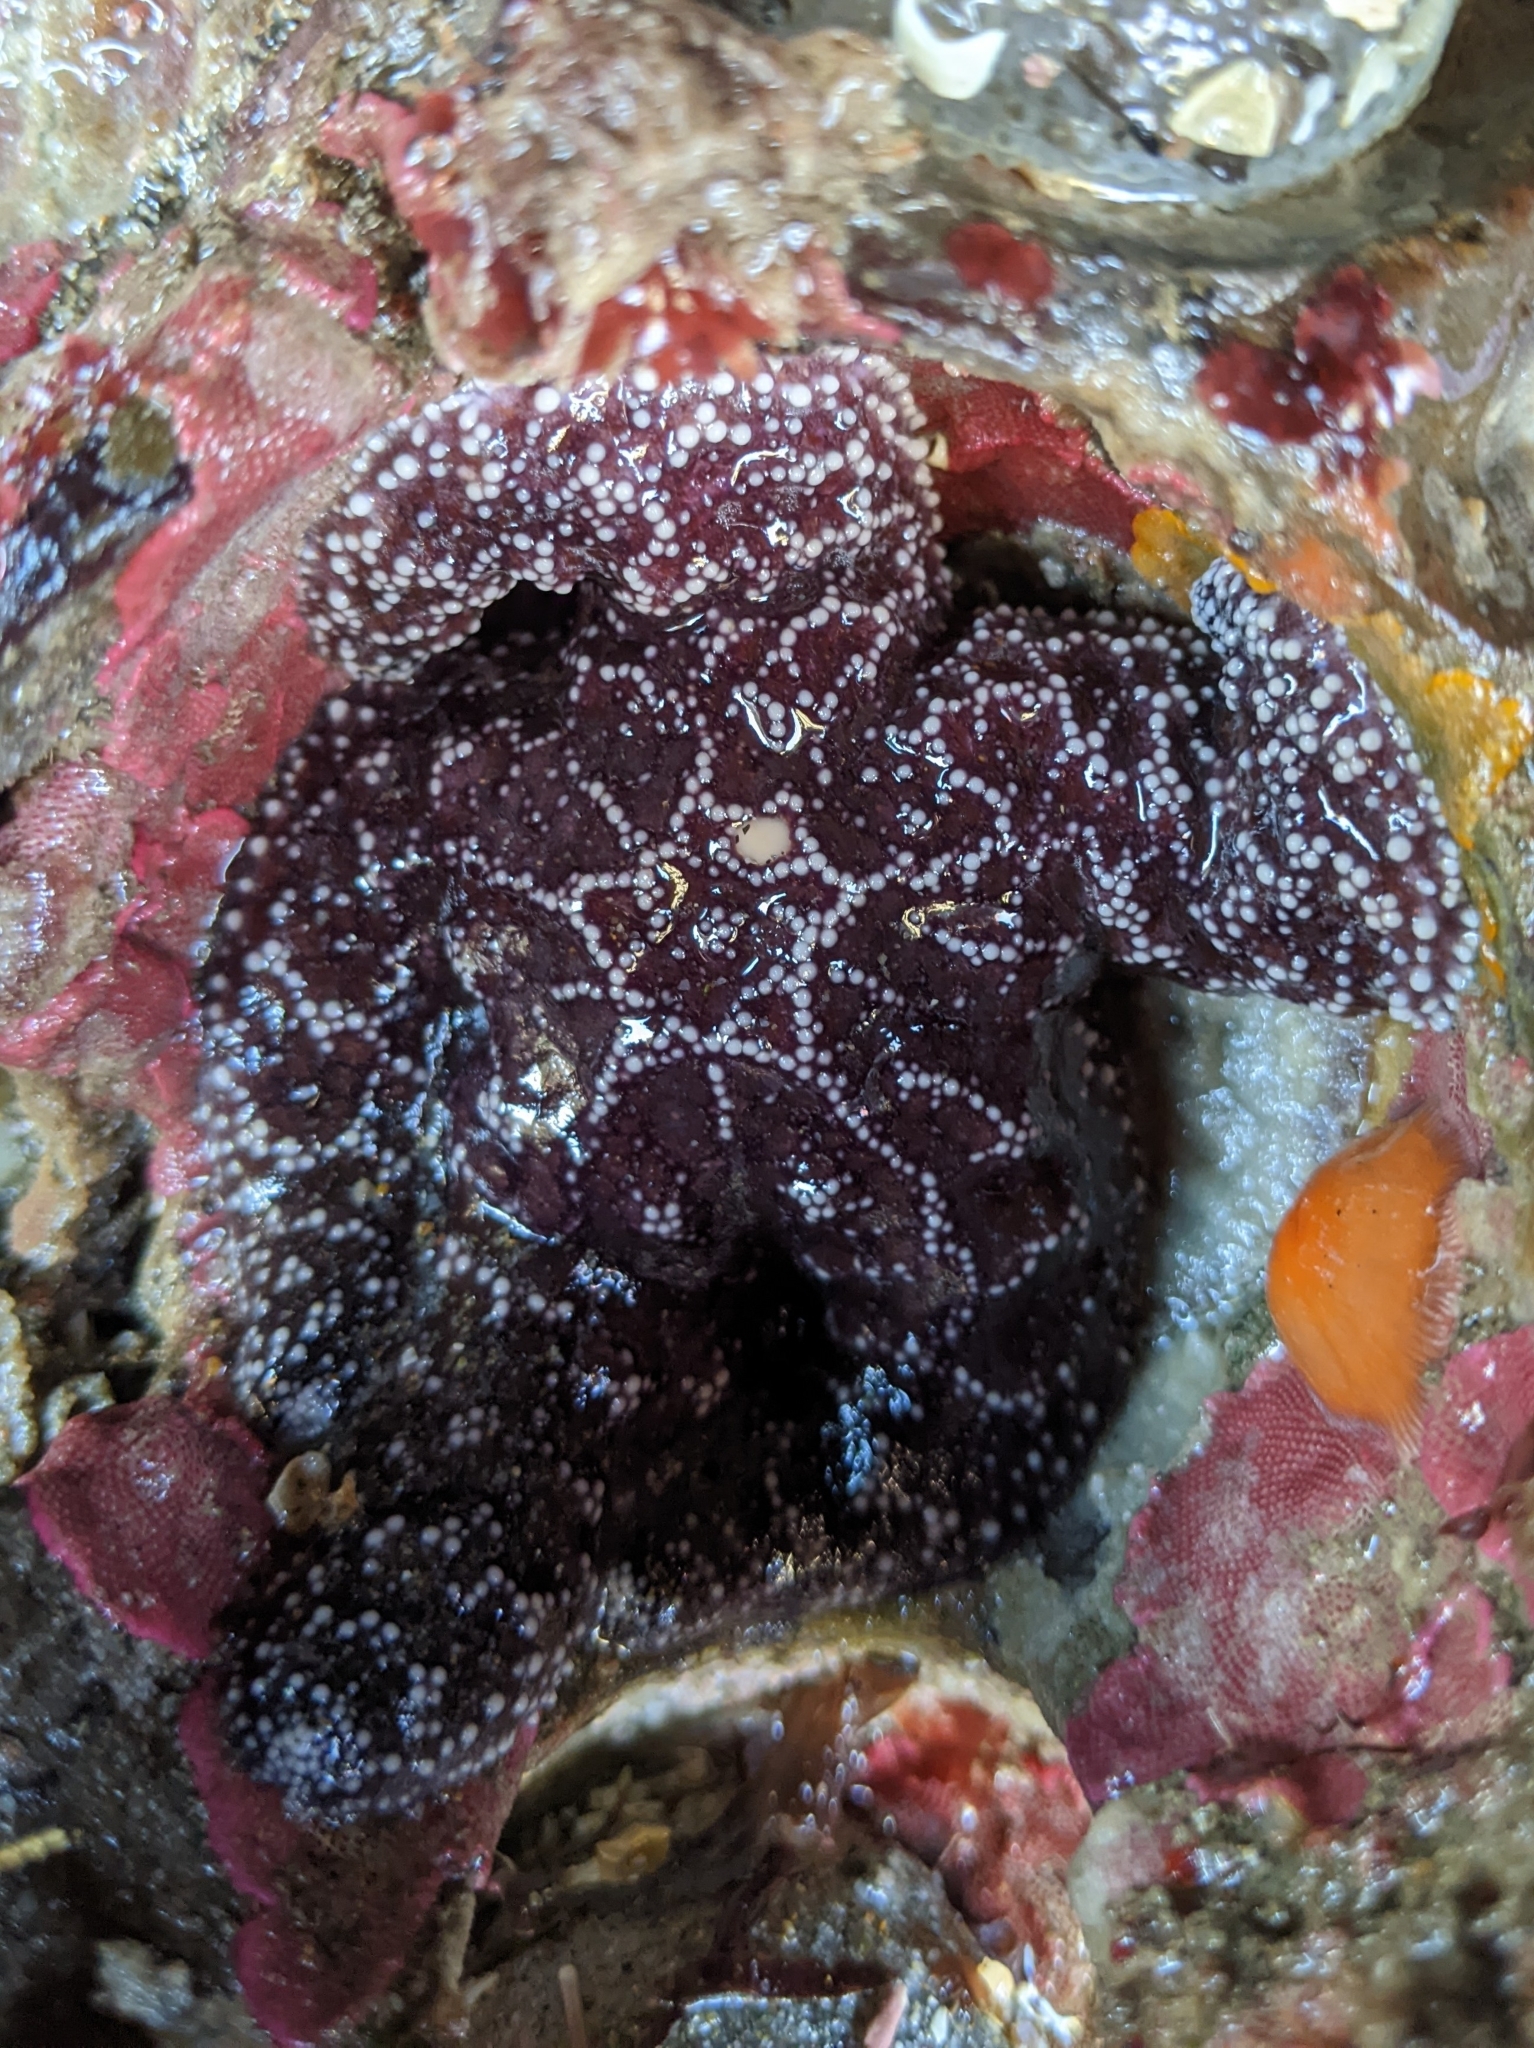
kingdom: Animalia
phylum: Echinodermata
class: Asteroidea
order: Forcipulatida
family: Asteriidae
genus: Pisaster
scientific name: Pisaster ochraceus
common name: Ochre stars
